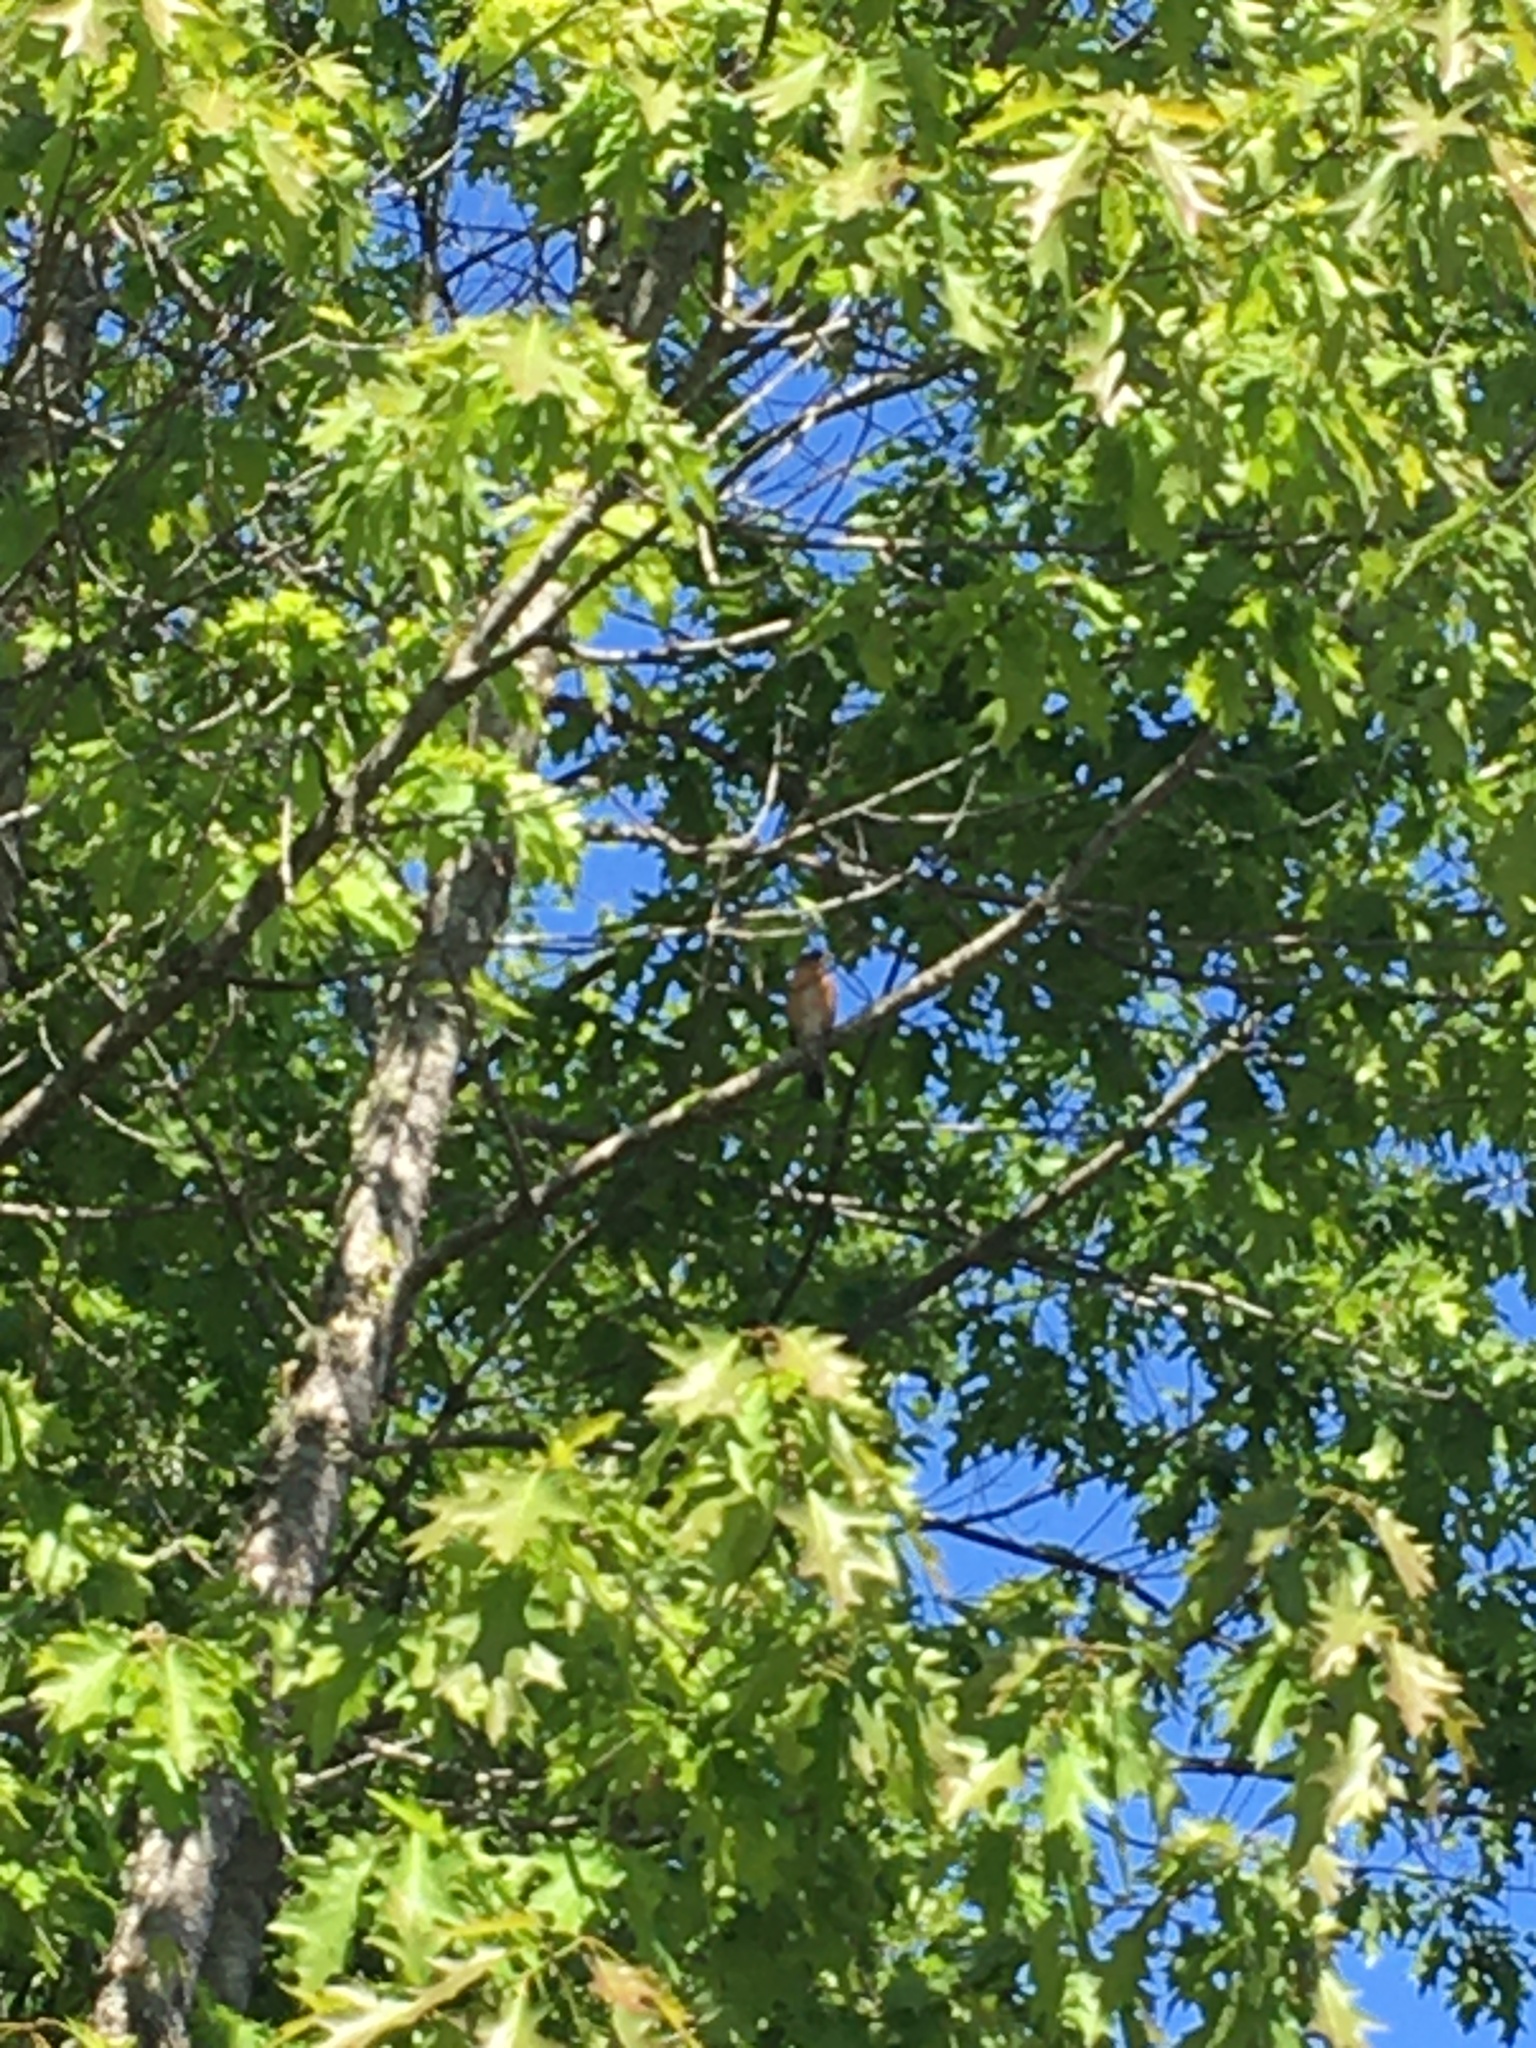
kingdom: Animalia
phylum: Chordata
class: Aves
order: Passeriformes
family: Cardinalidae
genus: Pheucticus
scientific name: Pheucticus melanocephalus
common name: Black-headed grosbeak
